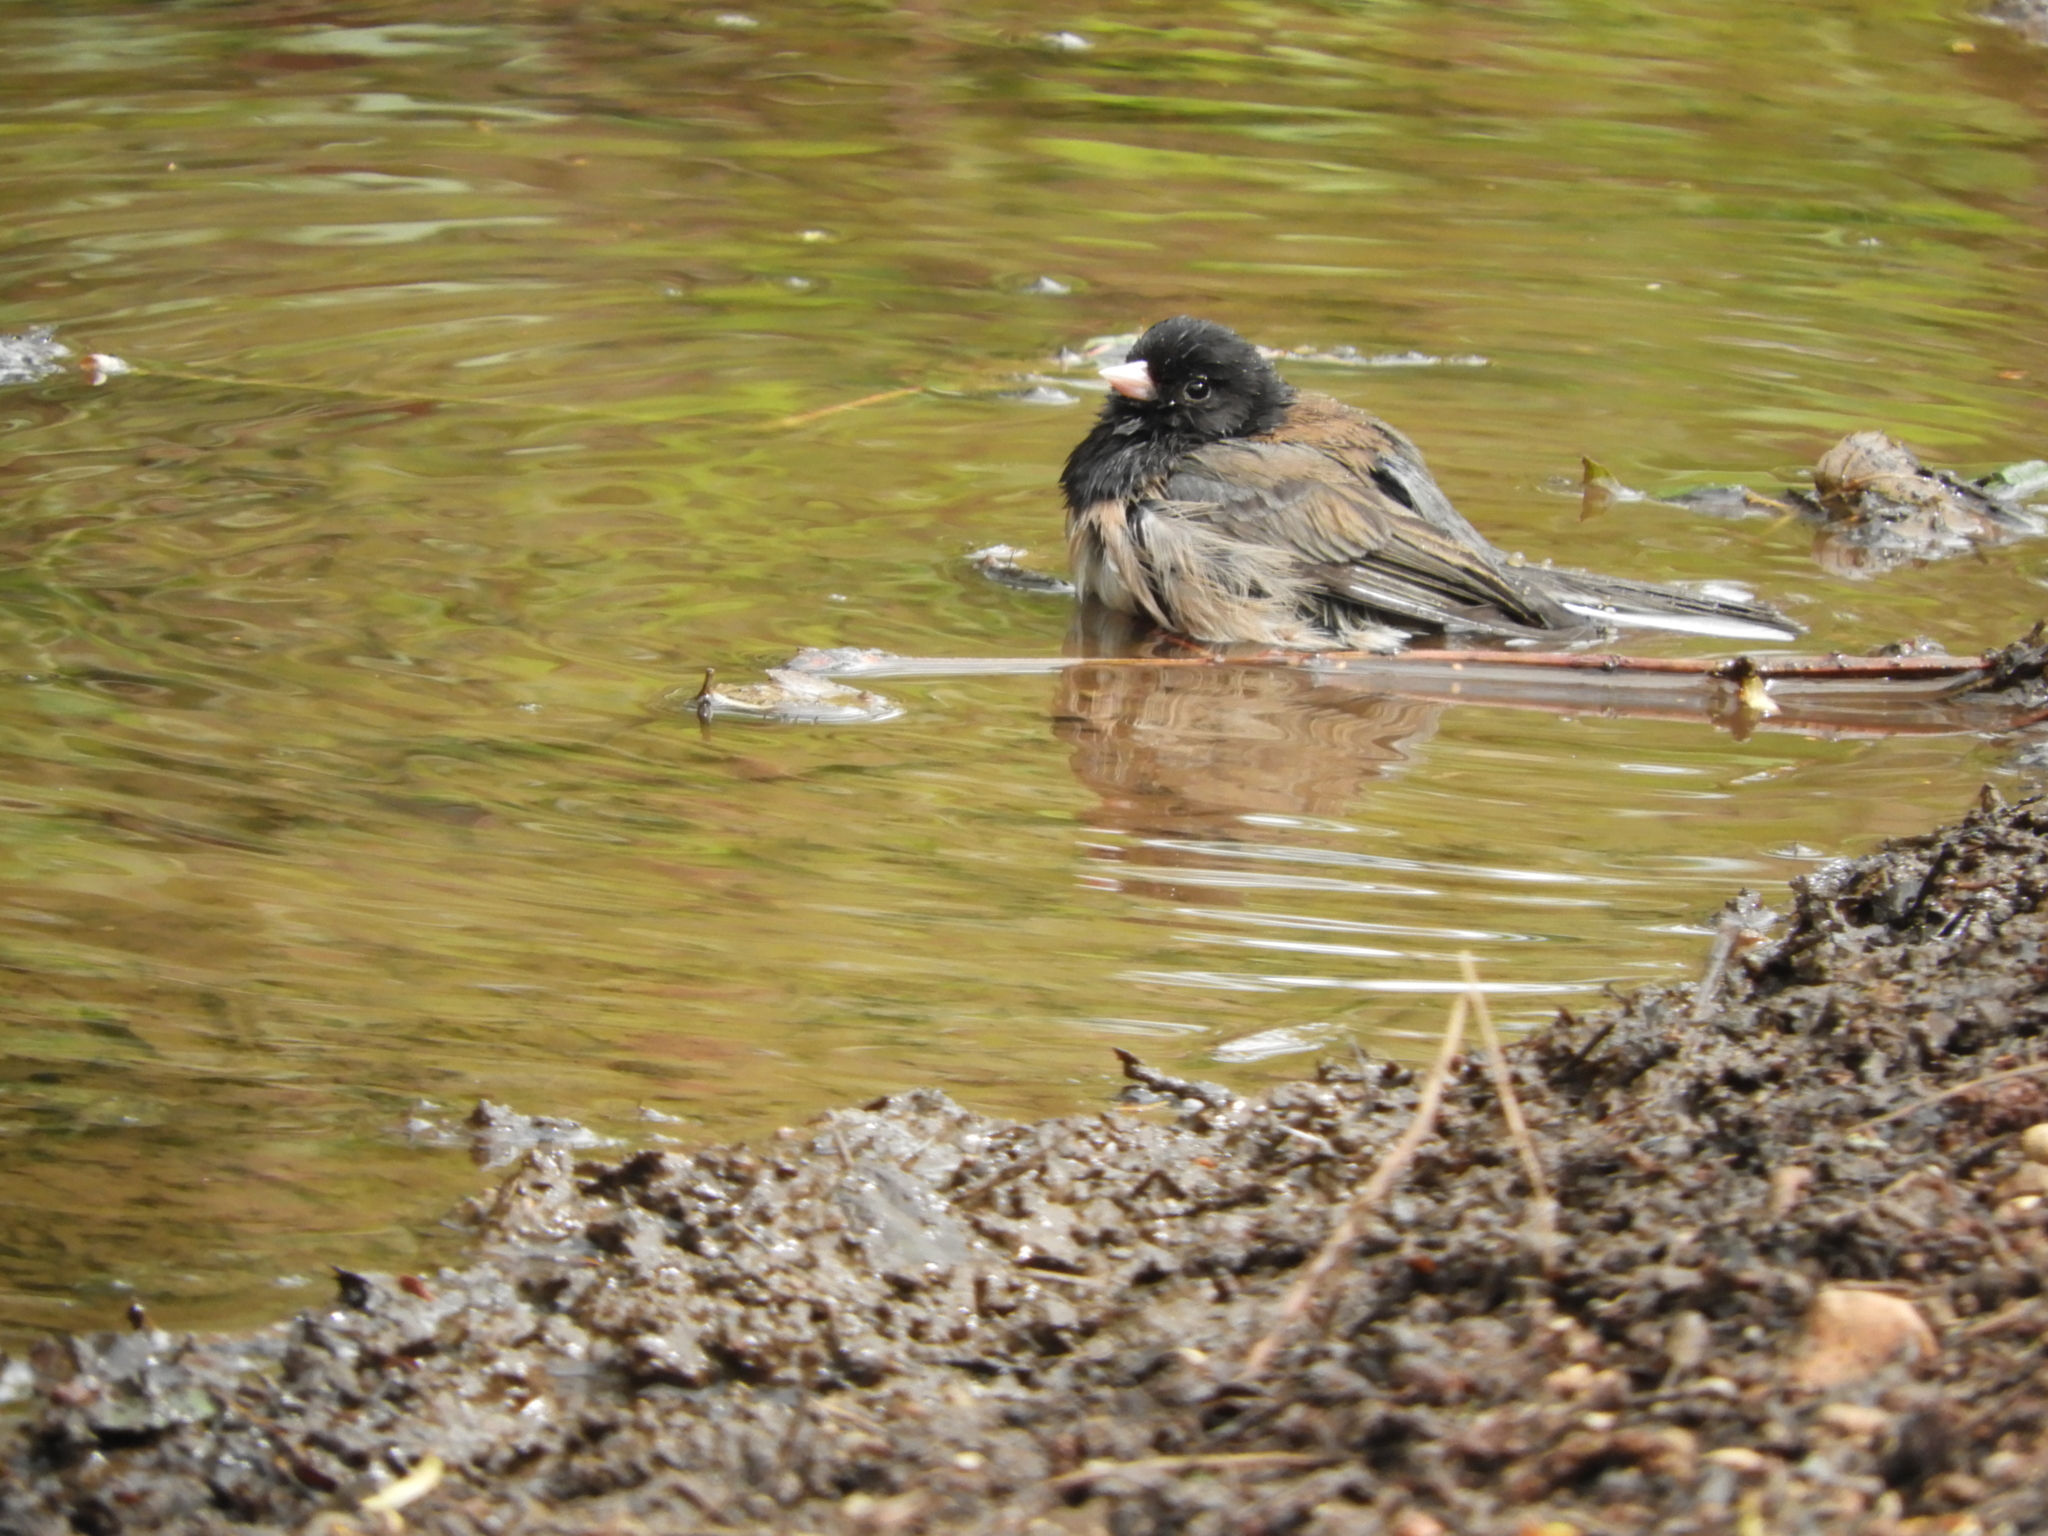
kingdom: Animalia
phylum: Chordata
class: Aves
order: Passeriformes
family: Passerellidae
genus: Junco
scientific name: Junco hyemalis
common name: Dark-eyed junco
